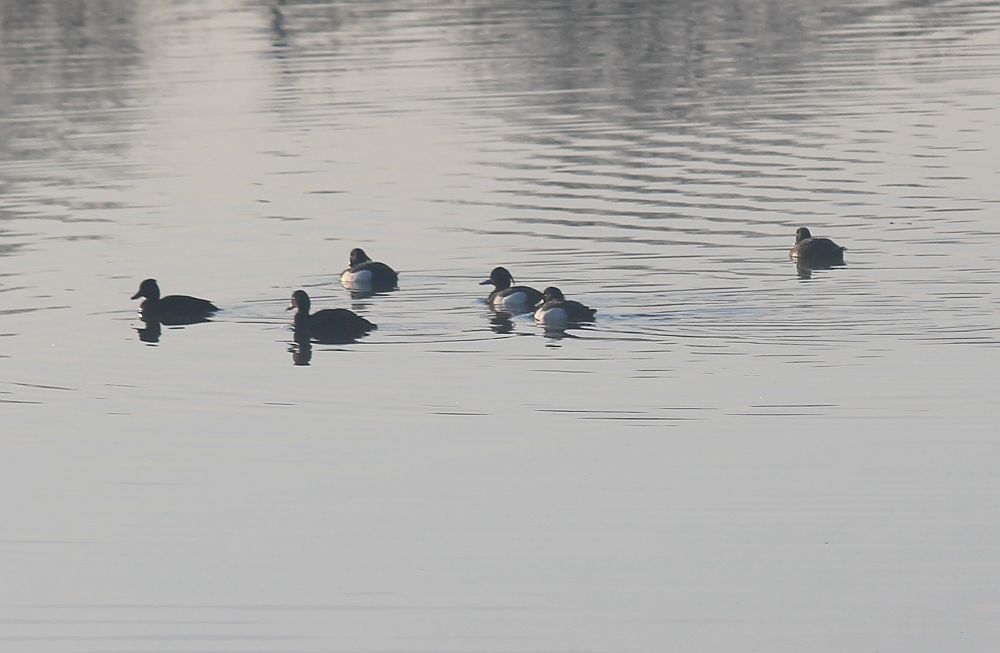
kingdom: Animalia
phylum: Chordata
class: Aves
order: Anseriformes
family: Anatidae
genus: Aythya
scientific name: Aythya fuligula
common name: Tufted duck
